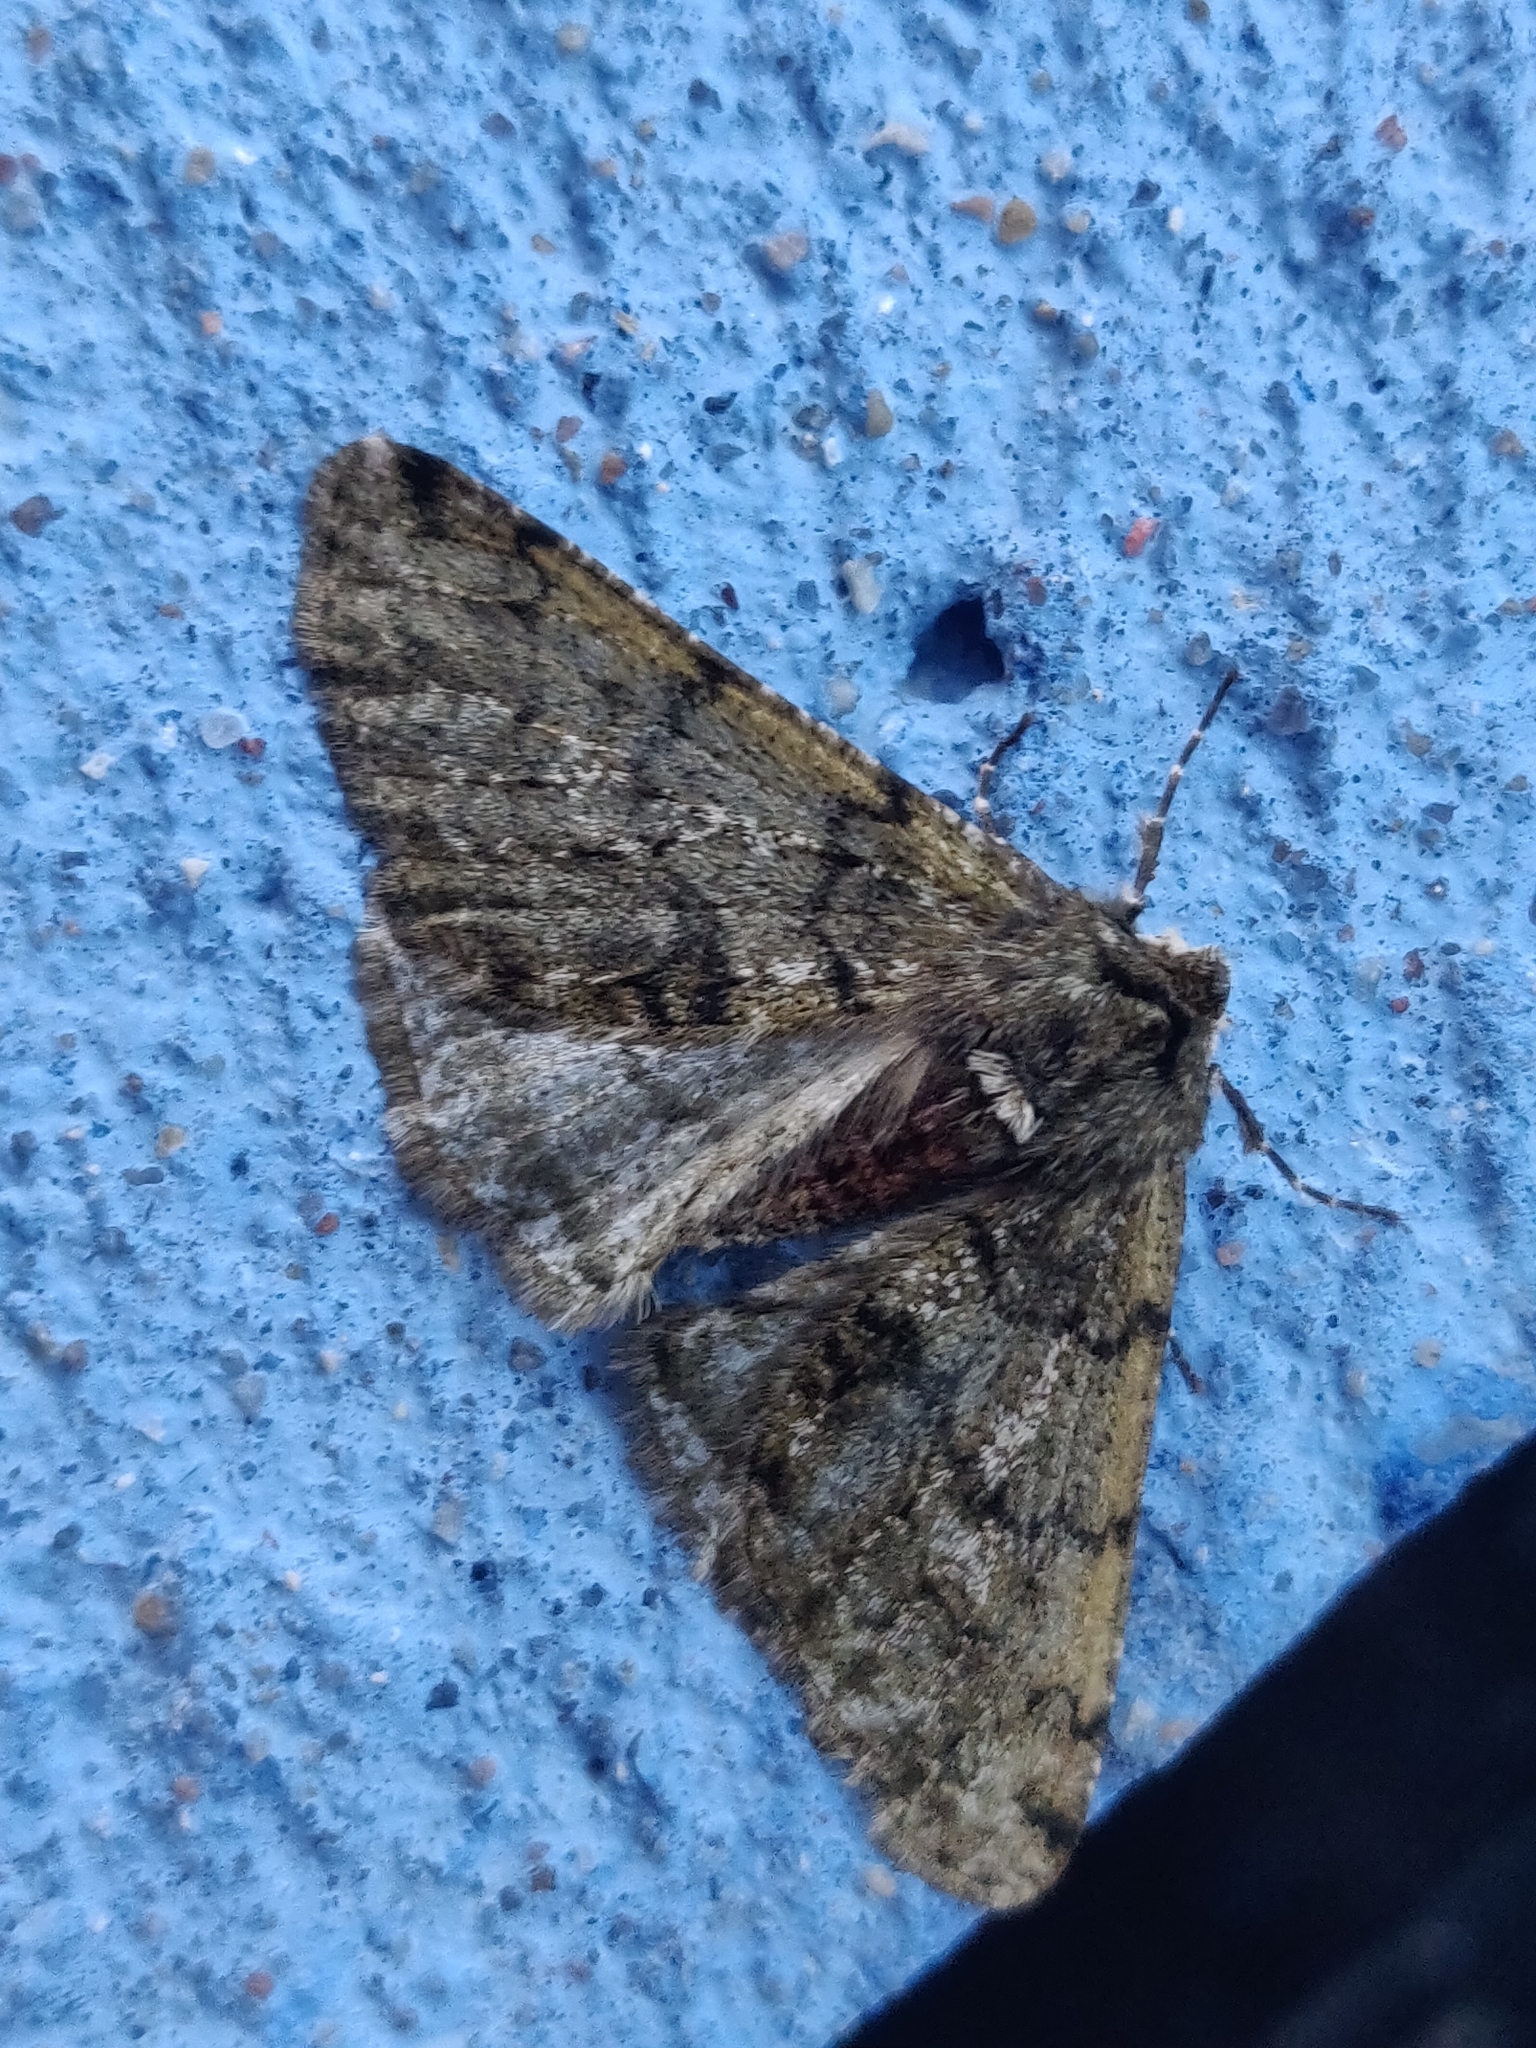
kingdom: Animalia
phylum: Arthropoda
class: Insecta
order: Lepidoptera
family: Geometridae
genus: Phigalia
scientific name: Phigalia pilosaria
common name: Pale brindled beauty
